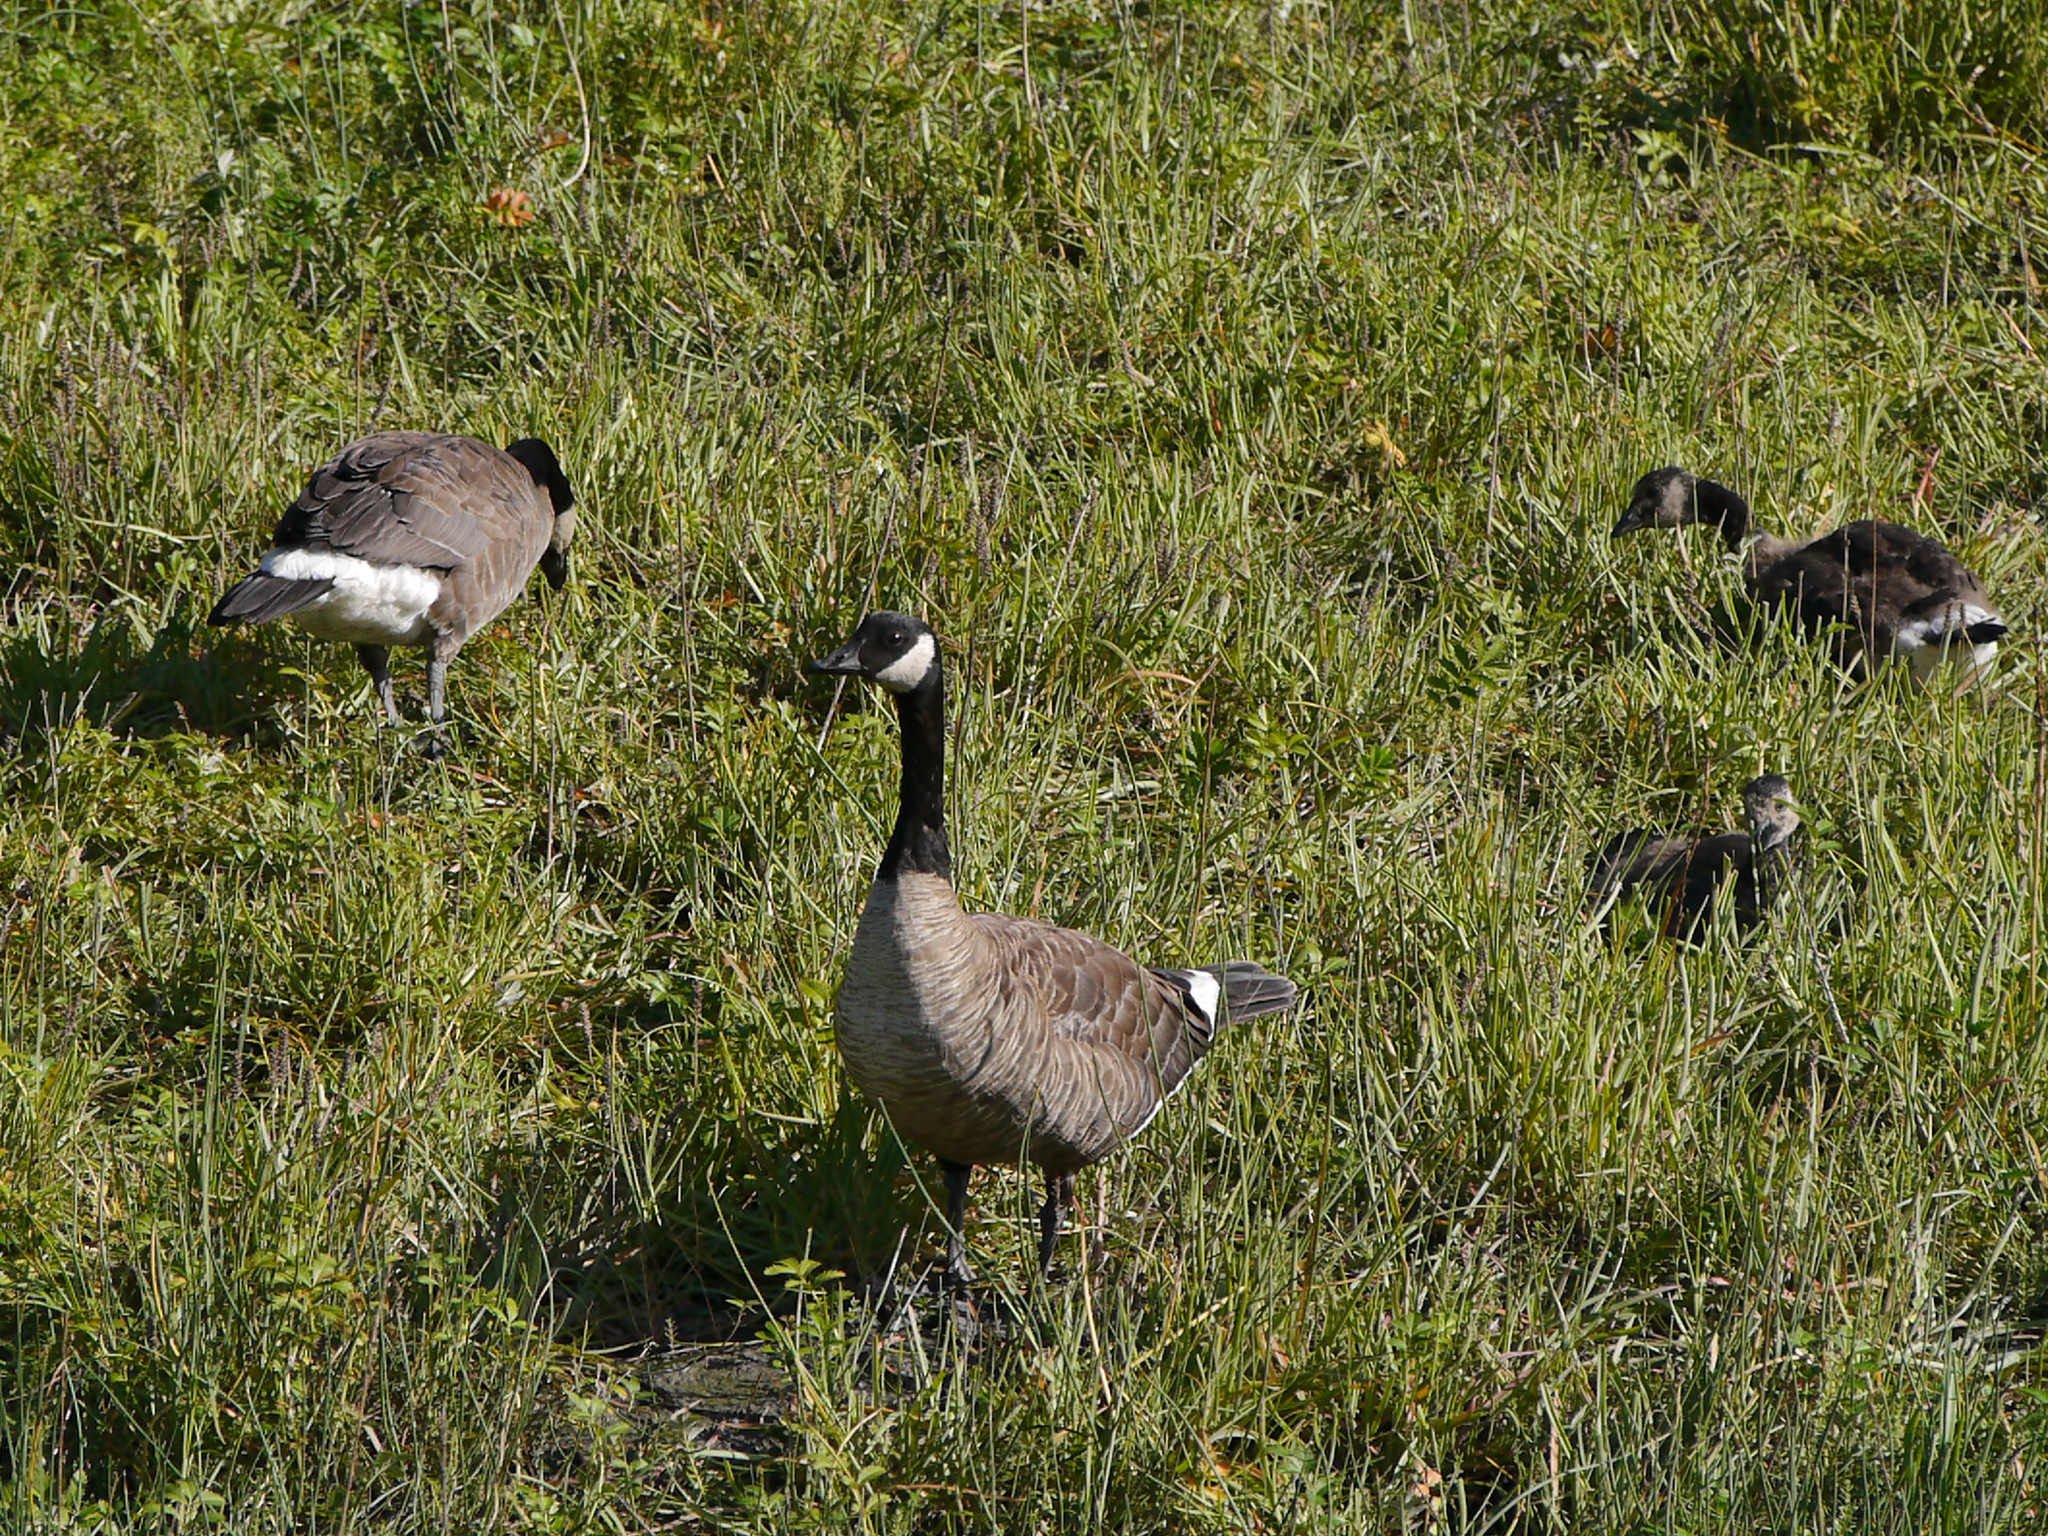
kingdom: Animalia
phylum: Chordata
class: Aves
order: Anseriformes
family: Anatidae
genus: Branta
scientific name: Branta canadensis
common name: Canada goose
